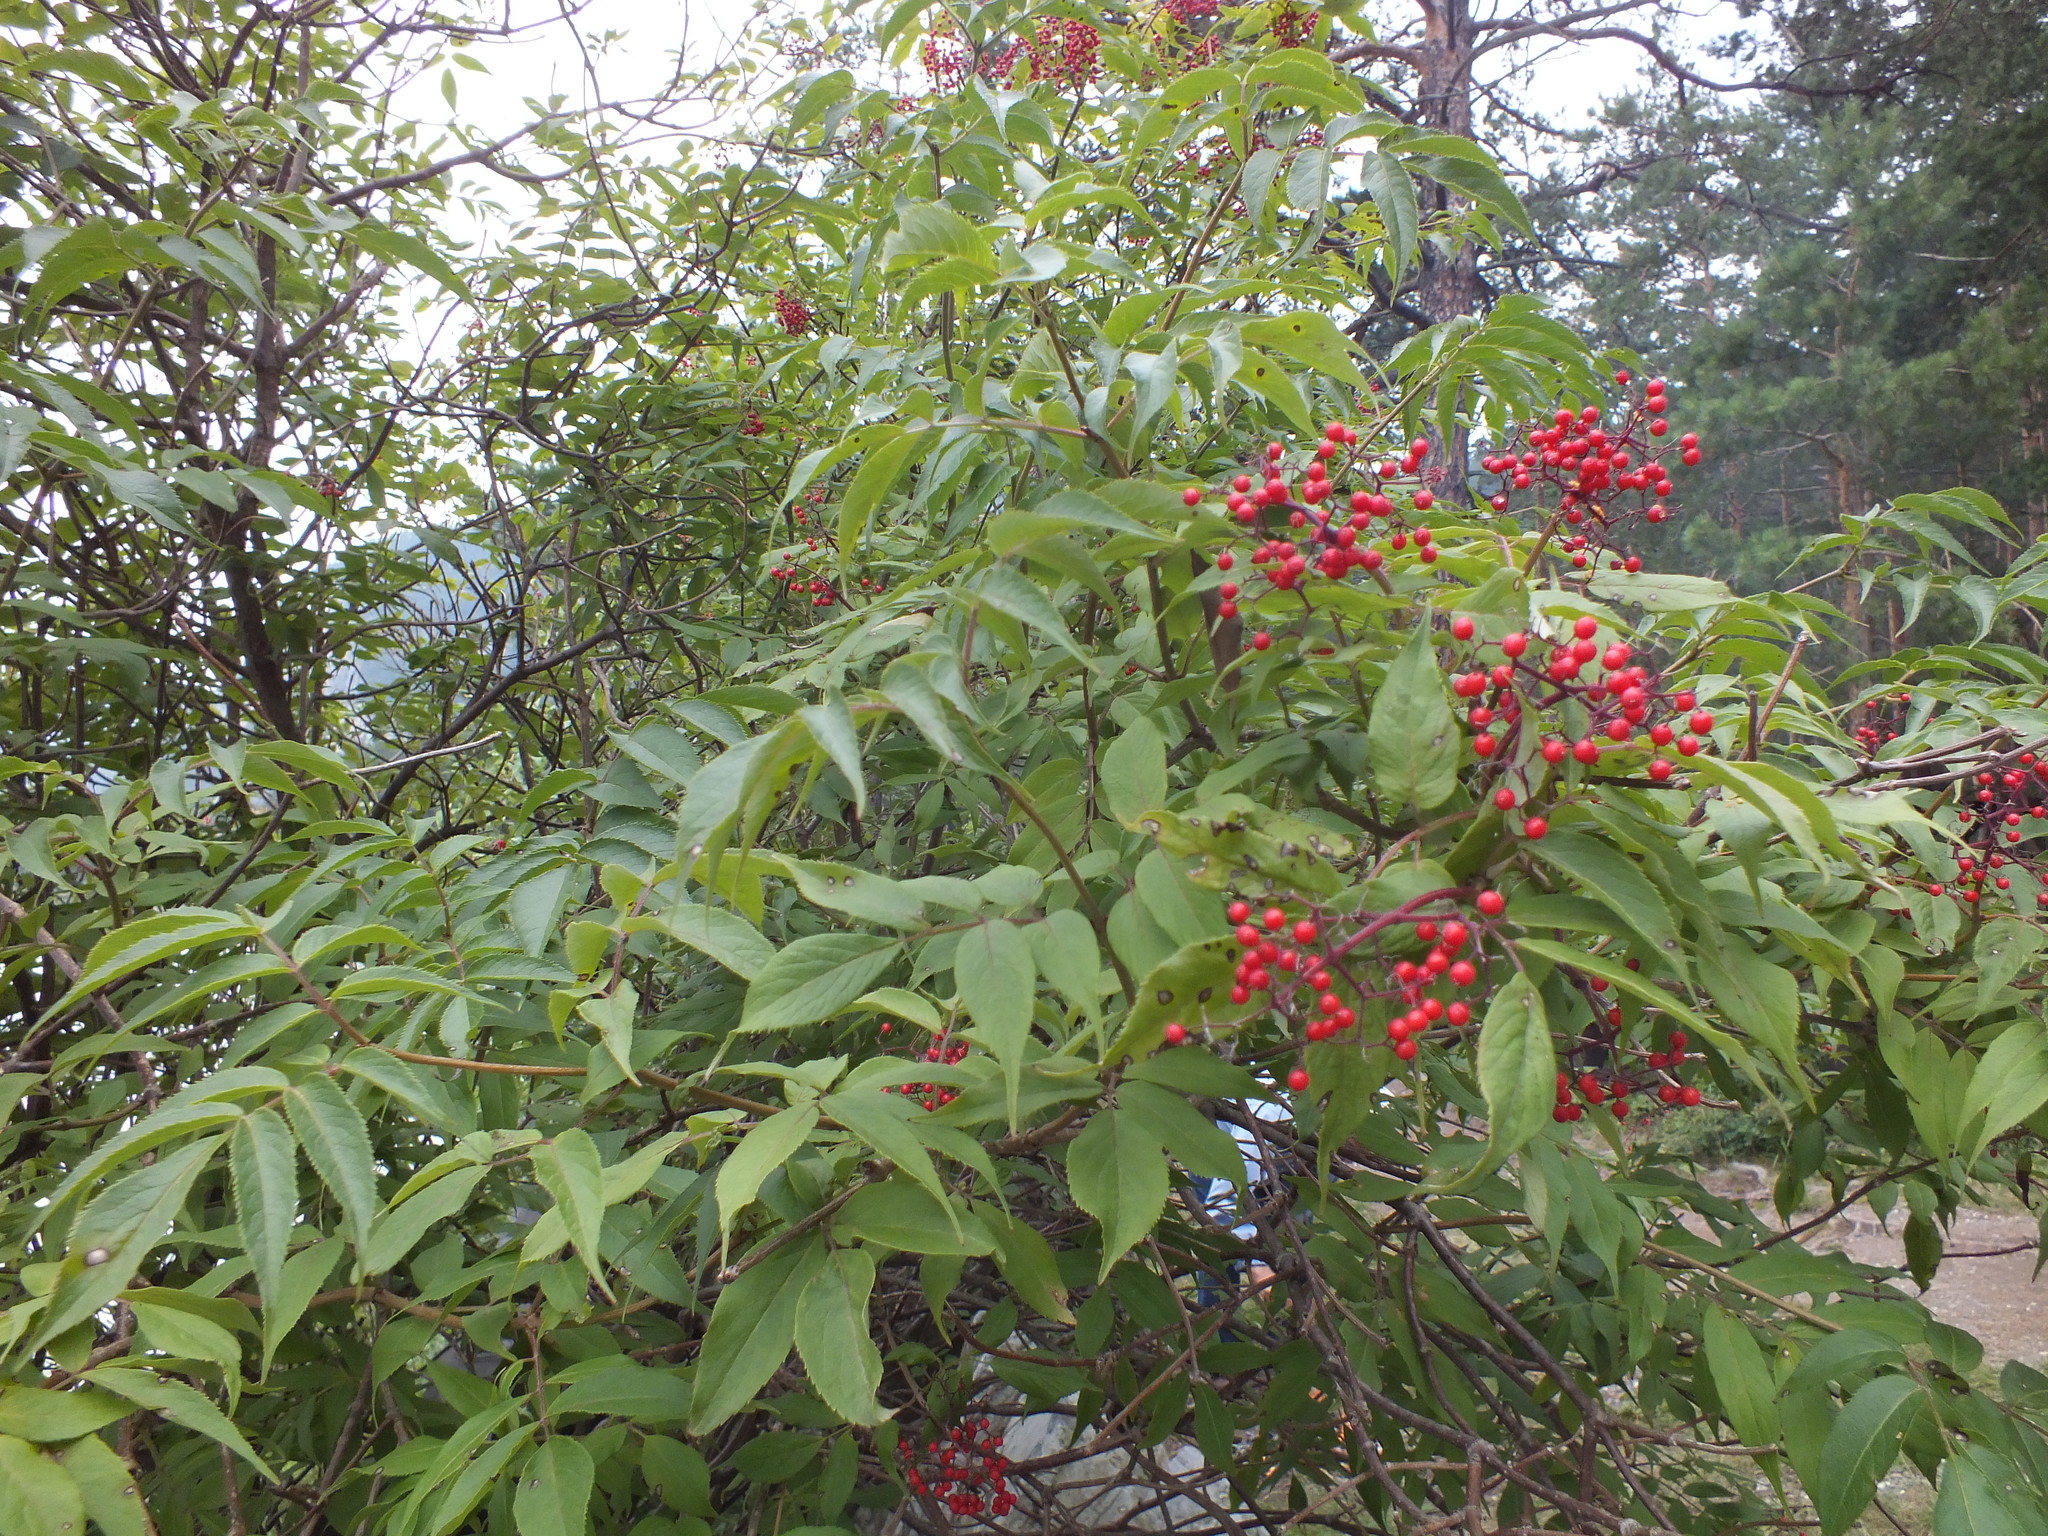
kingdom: Plantae
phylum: Tracheophyta
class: Magnoliopsida
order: Dipsacales
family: Viburnaceae
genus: Sambucus
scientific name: Sambucus racemosa
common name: Red-berried elder
